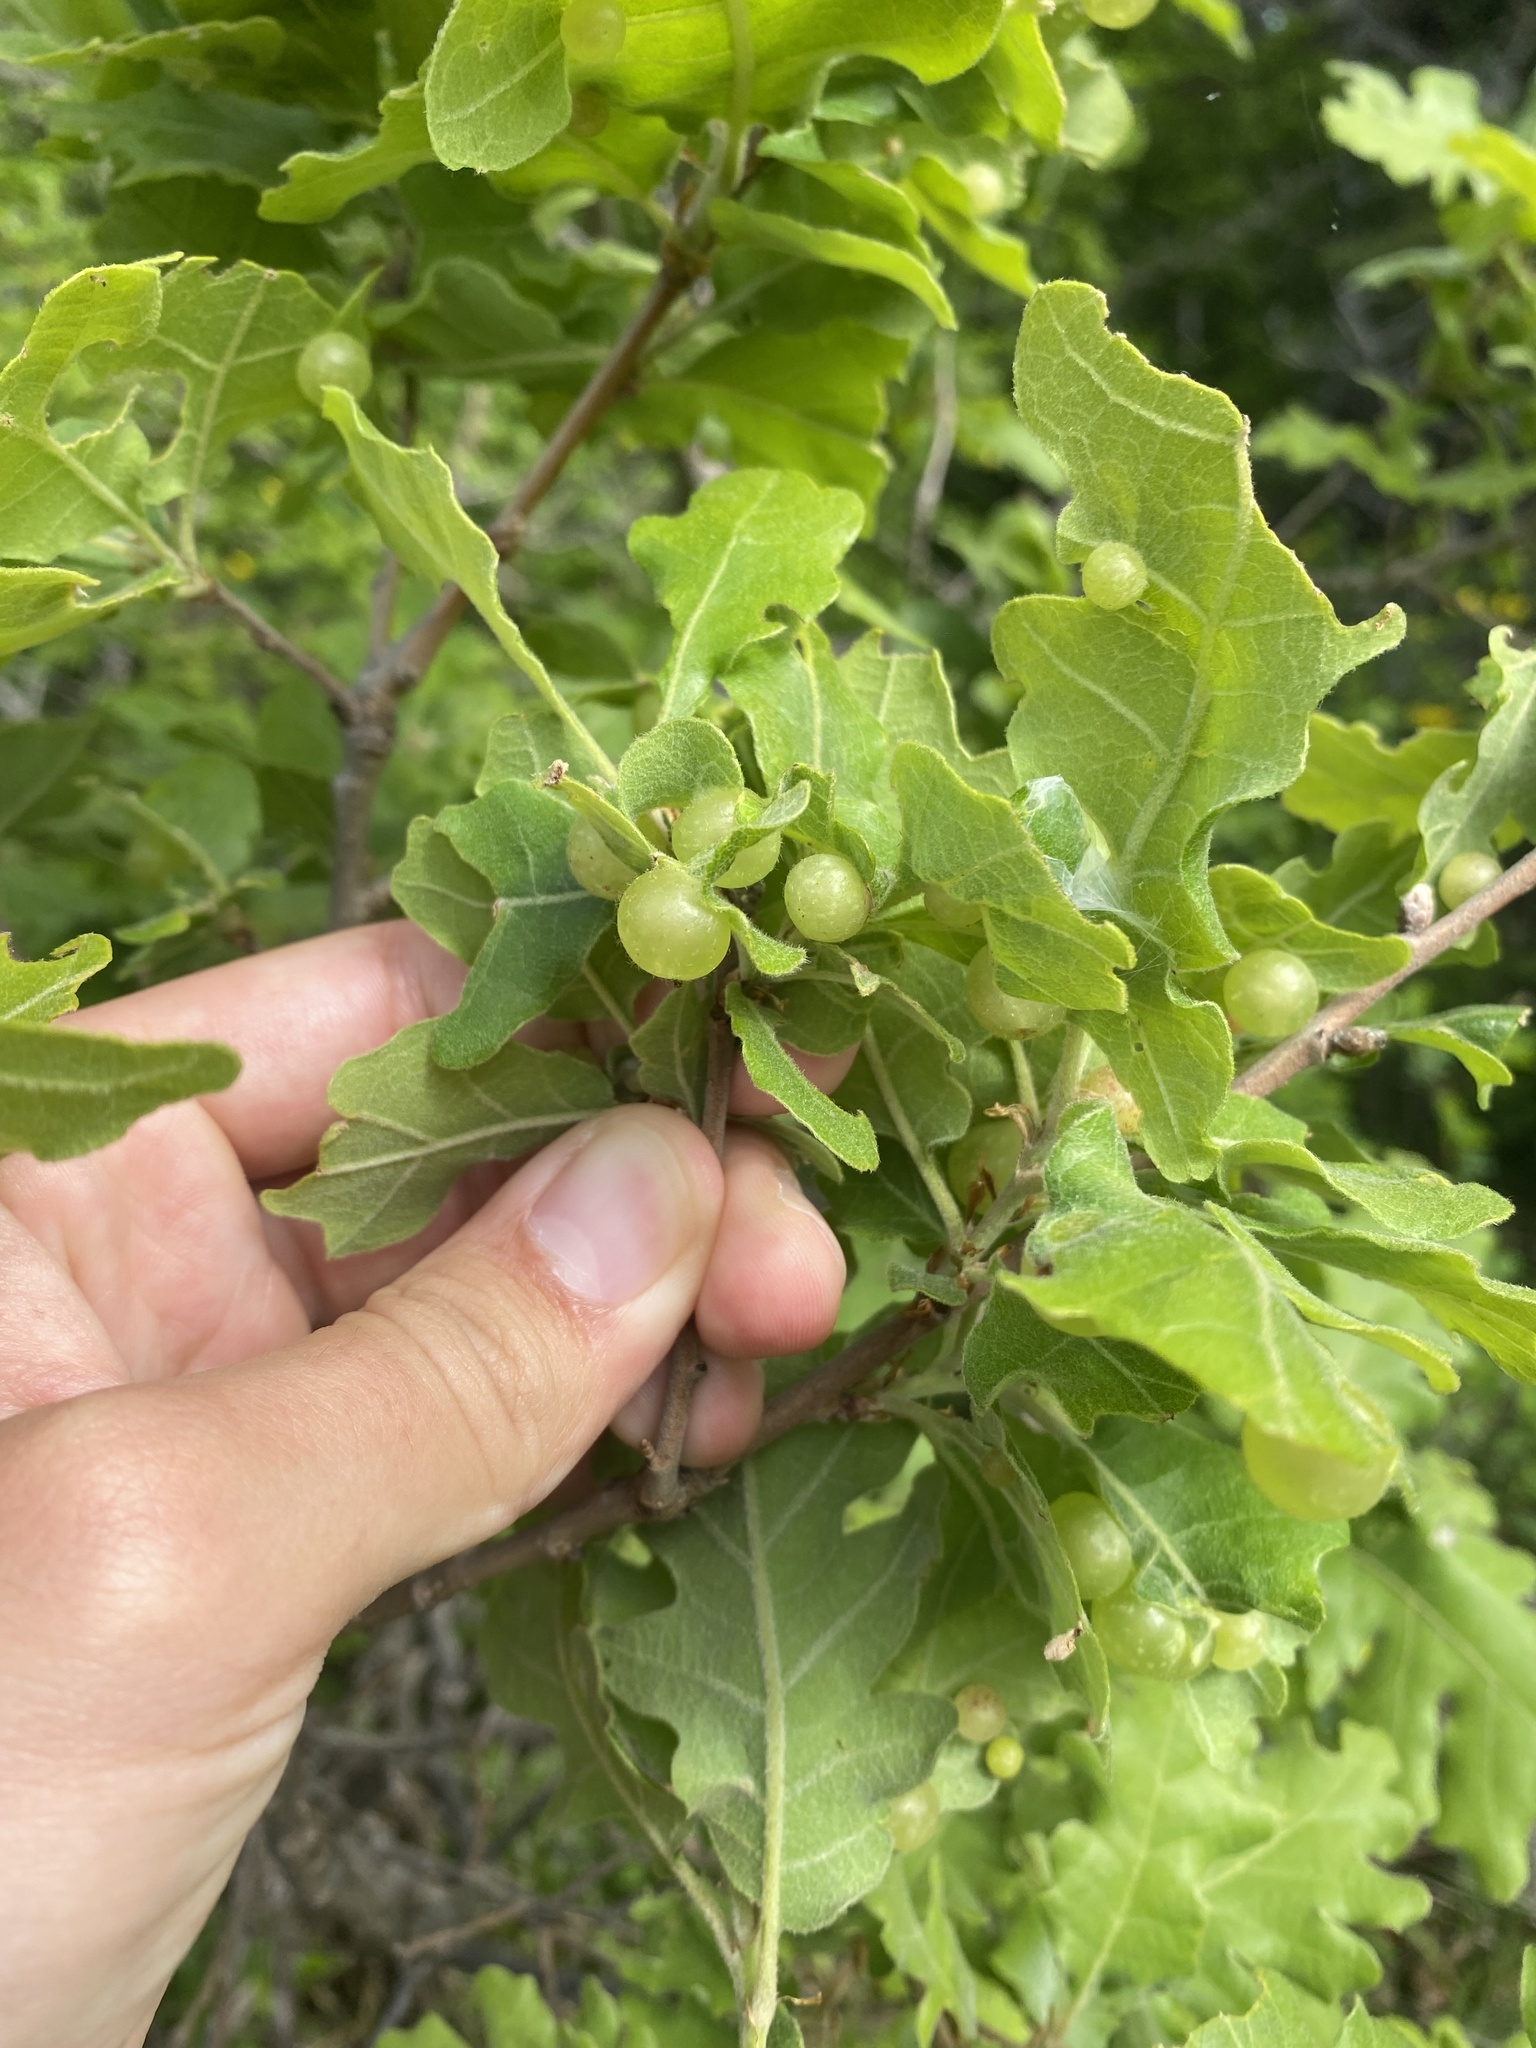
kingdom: Animalia
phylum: Arthropoda
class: Insecta
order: Hymenoptera
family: Cynipidae
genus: Neuroterus
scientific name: Neuroterus quercusbaccarum
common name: Common spangle gall
